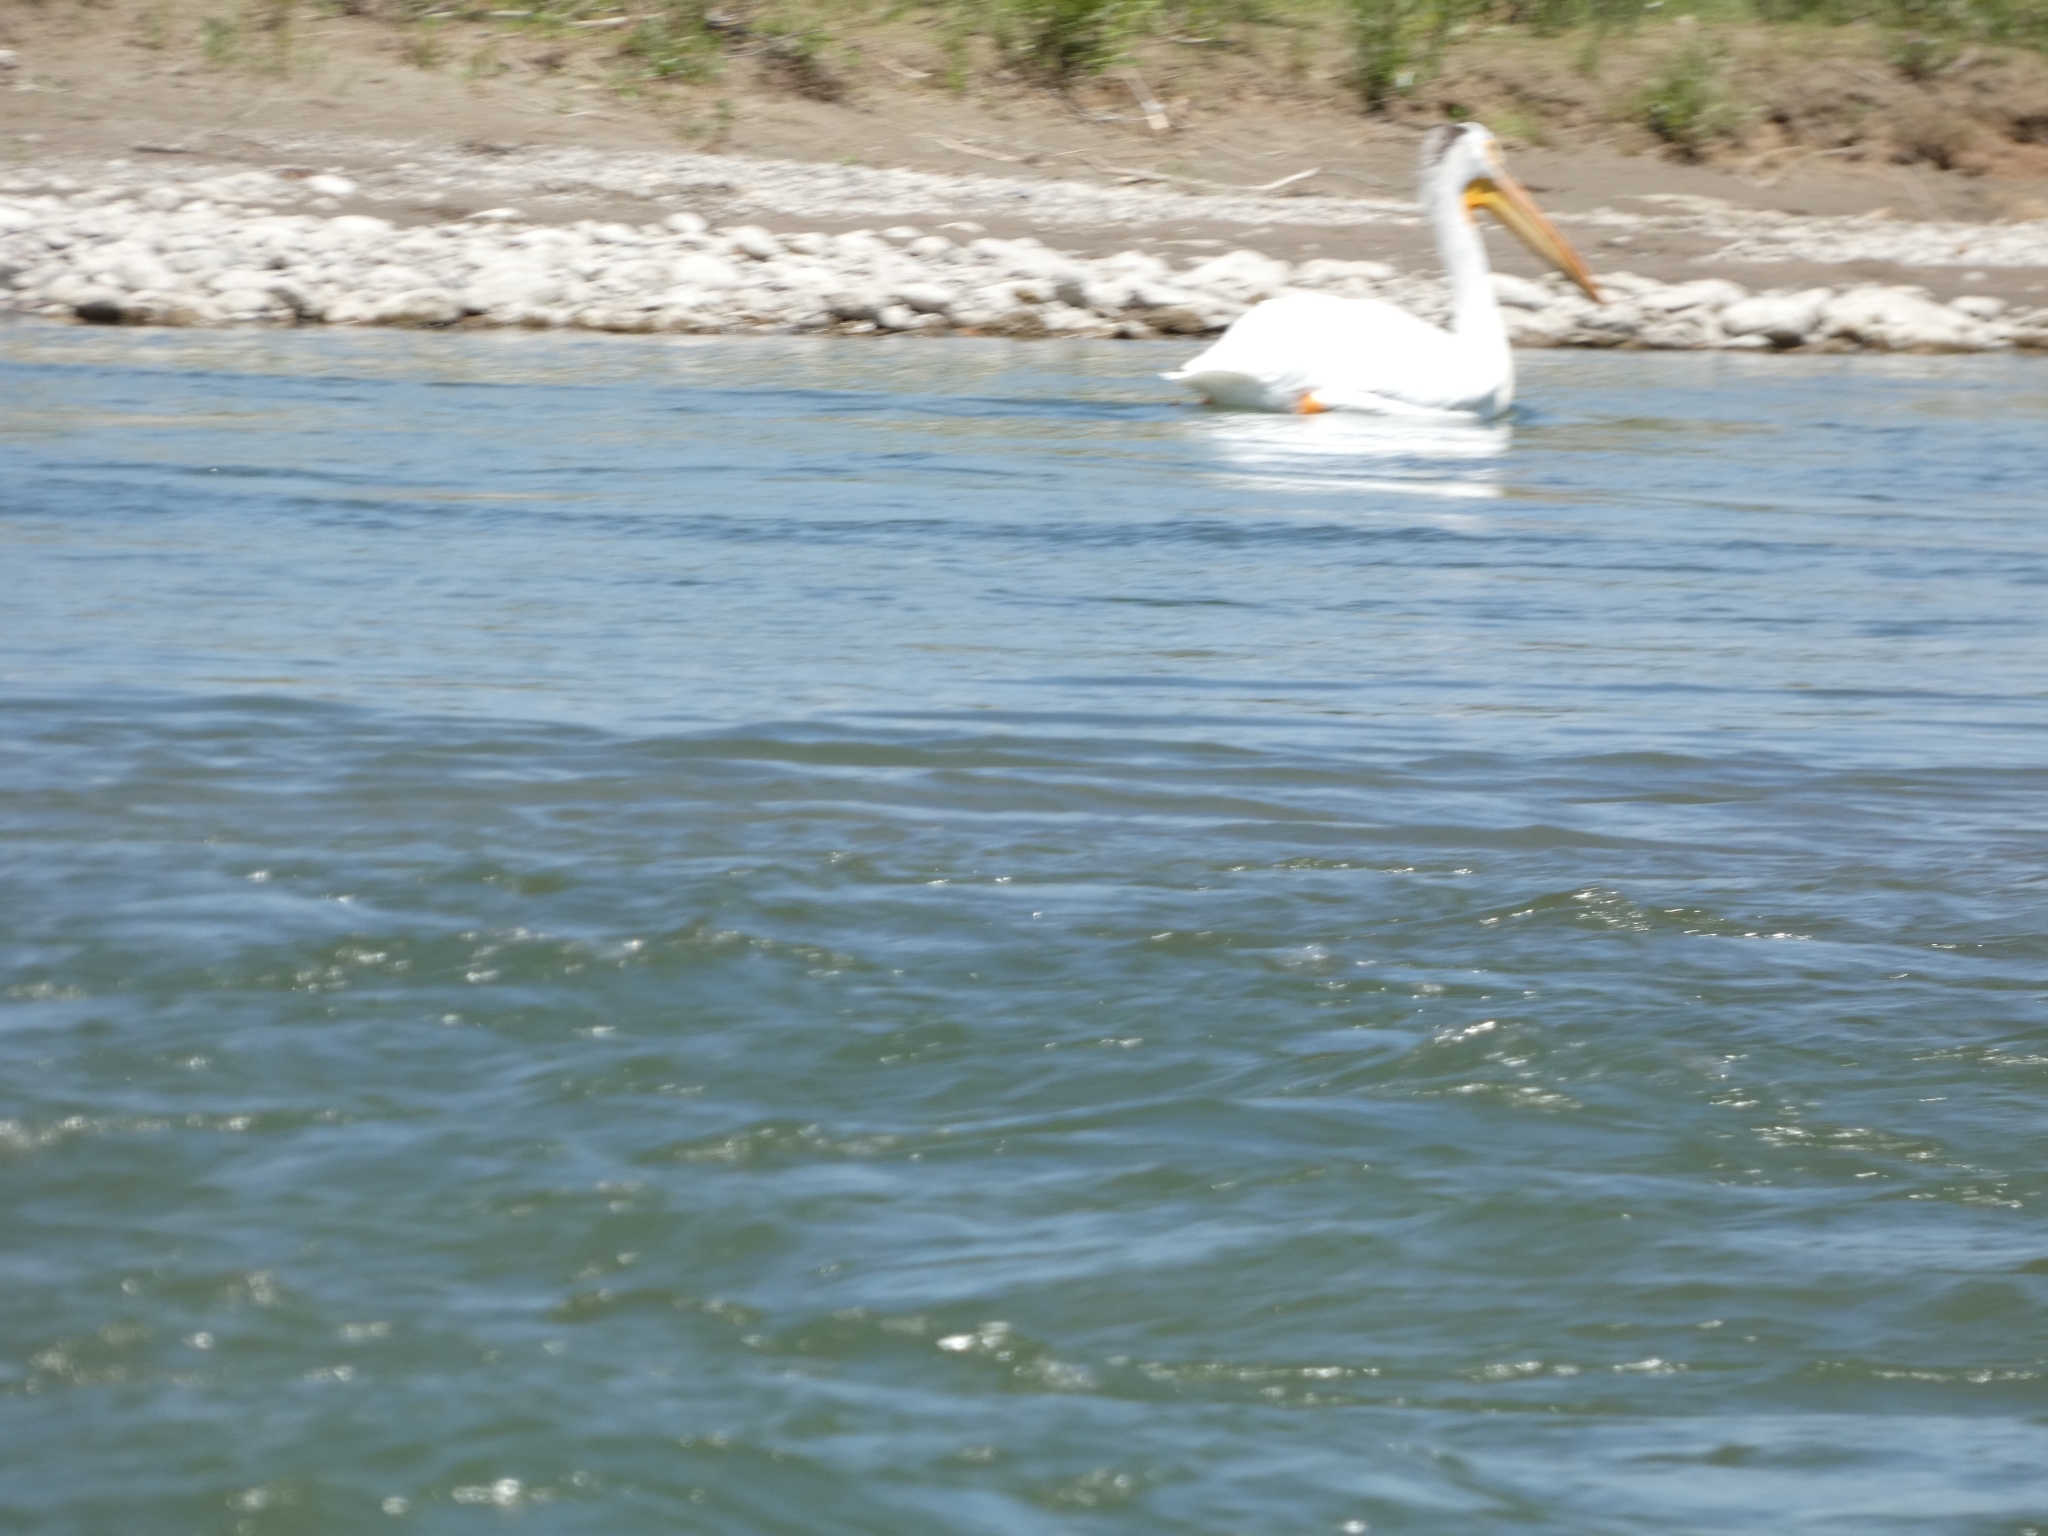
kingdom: Animalia
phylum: Chordata
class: Aves
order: Pelecaniformes
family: Pelecanidae
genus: Pelecanus
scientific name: Pelecanus erythrorhynchos
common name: American white pelican
